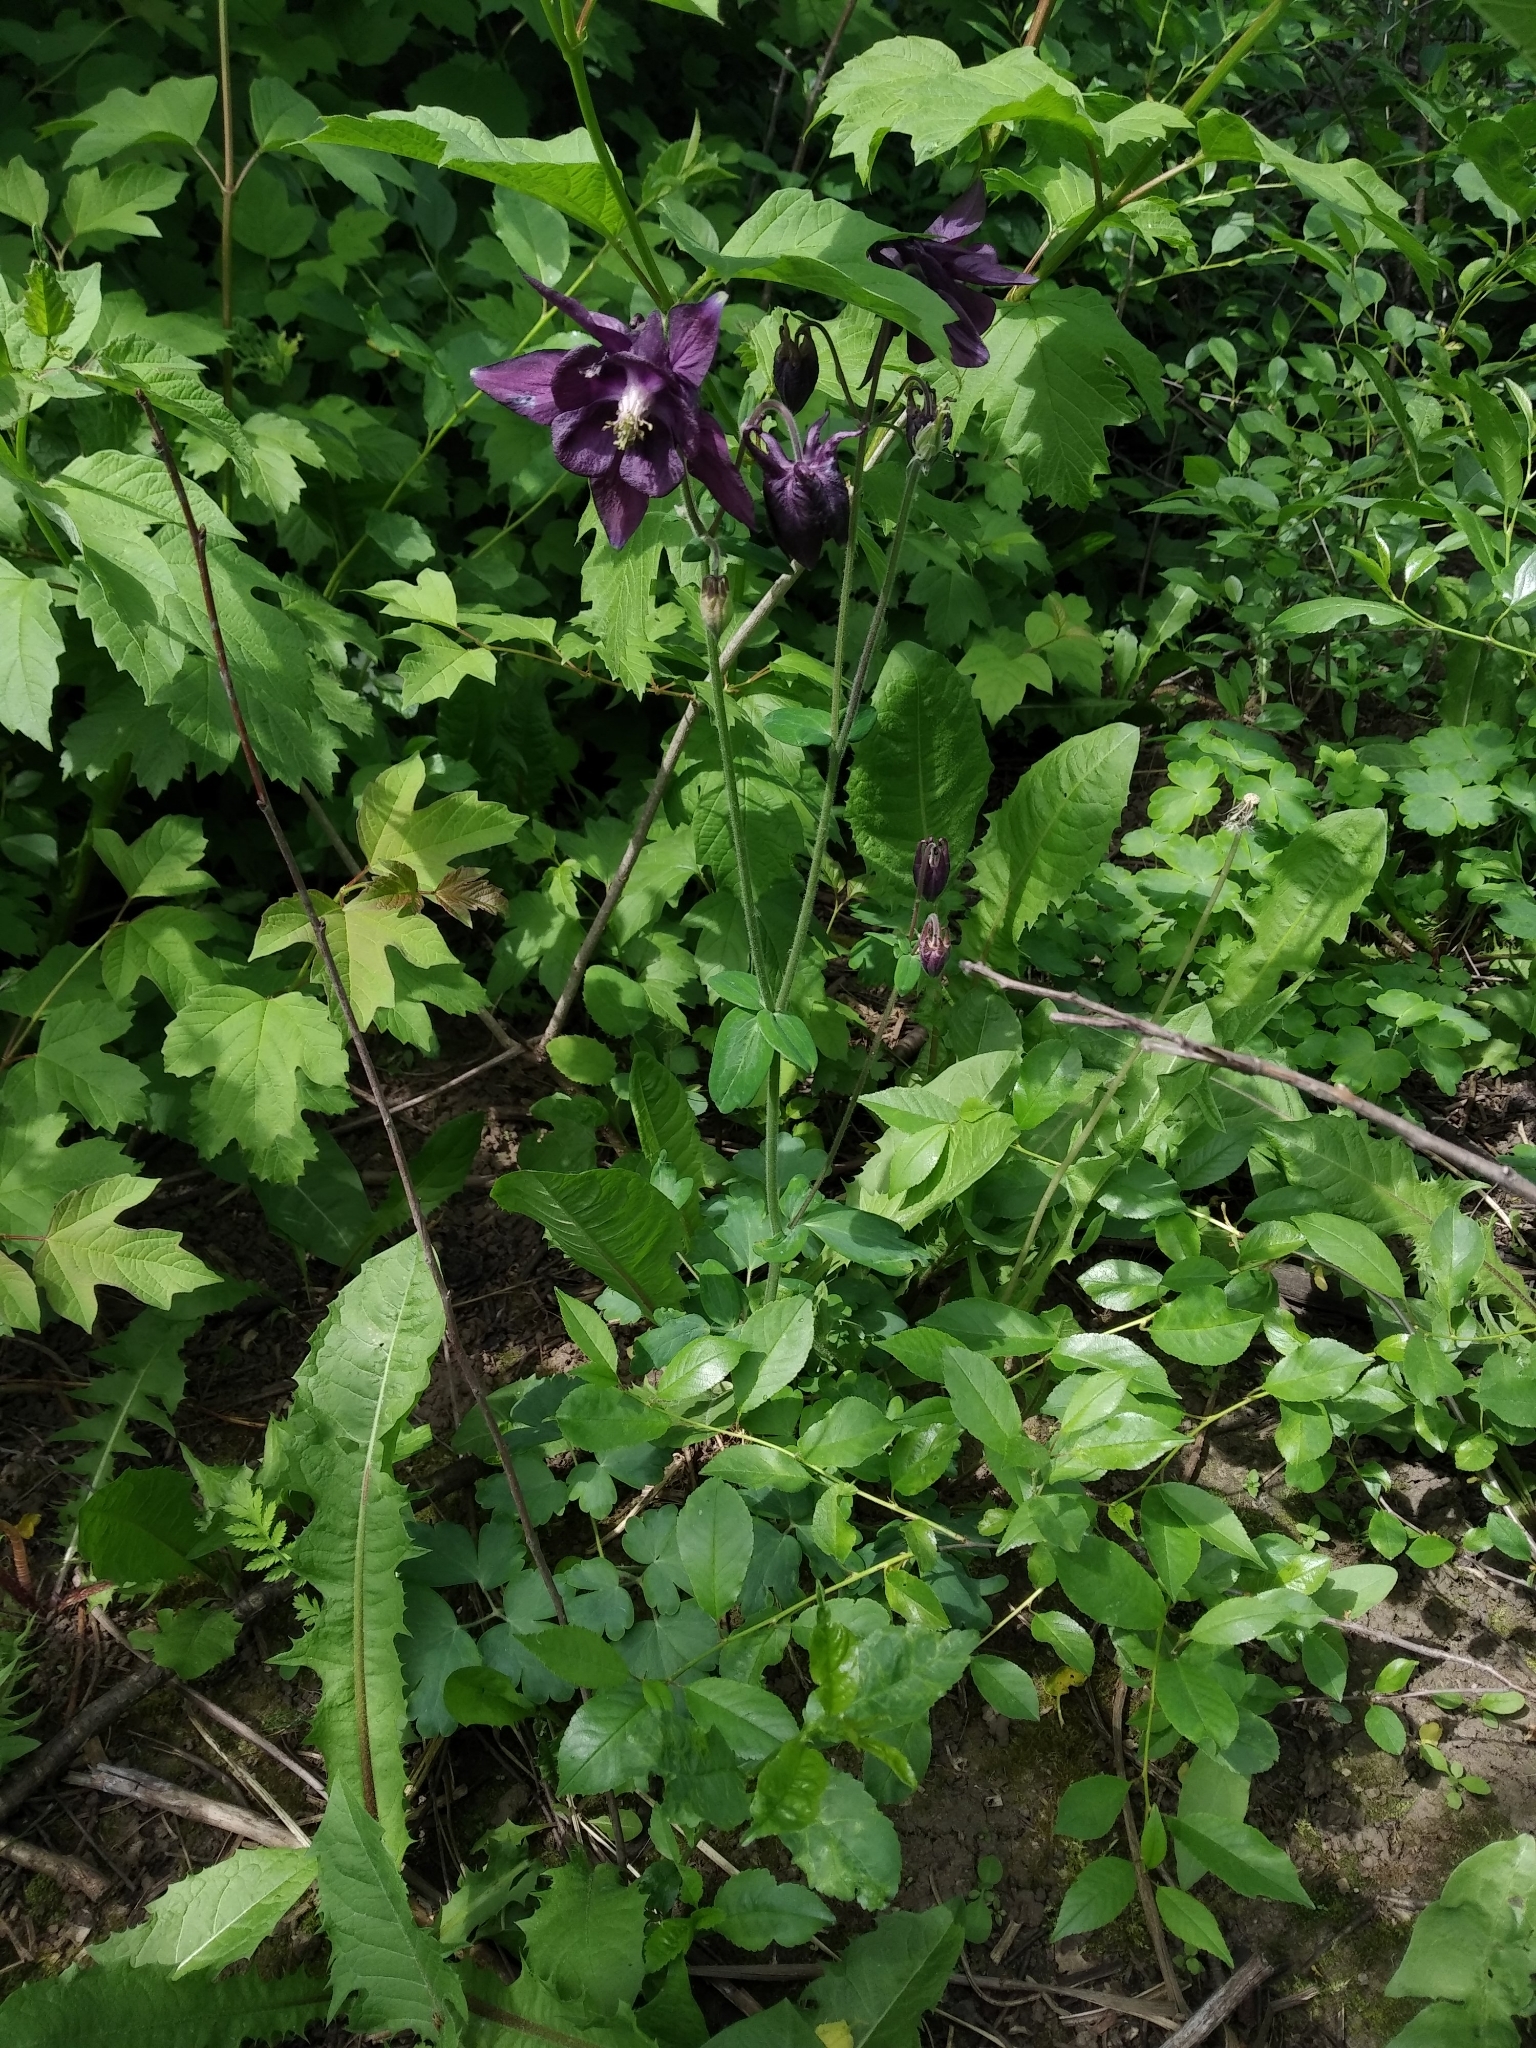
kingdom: Plantae
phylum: Tracheophyta
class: Magnoliopsida
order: Ranunculales
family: Ranunculaceae
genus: Aquilegia
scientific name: Aquilegia vulgaris
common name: Columbine
